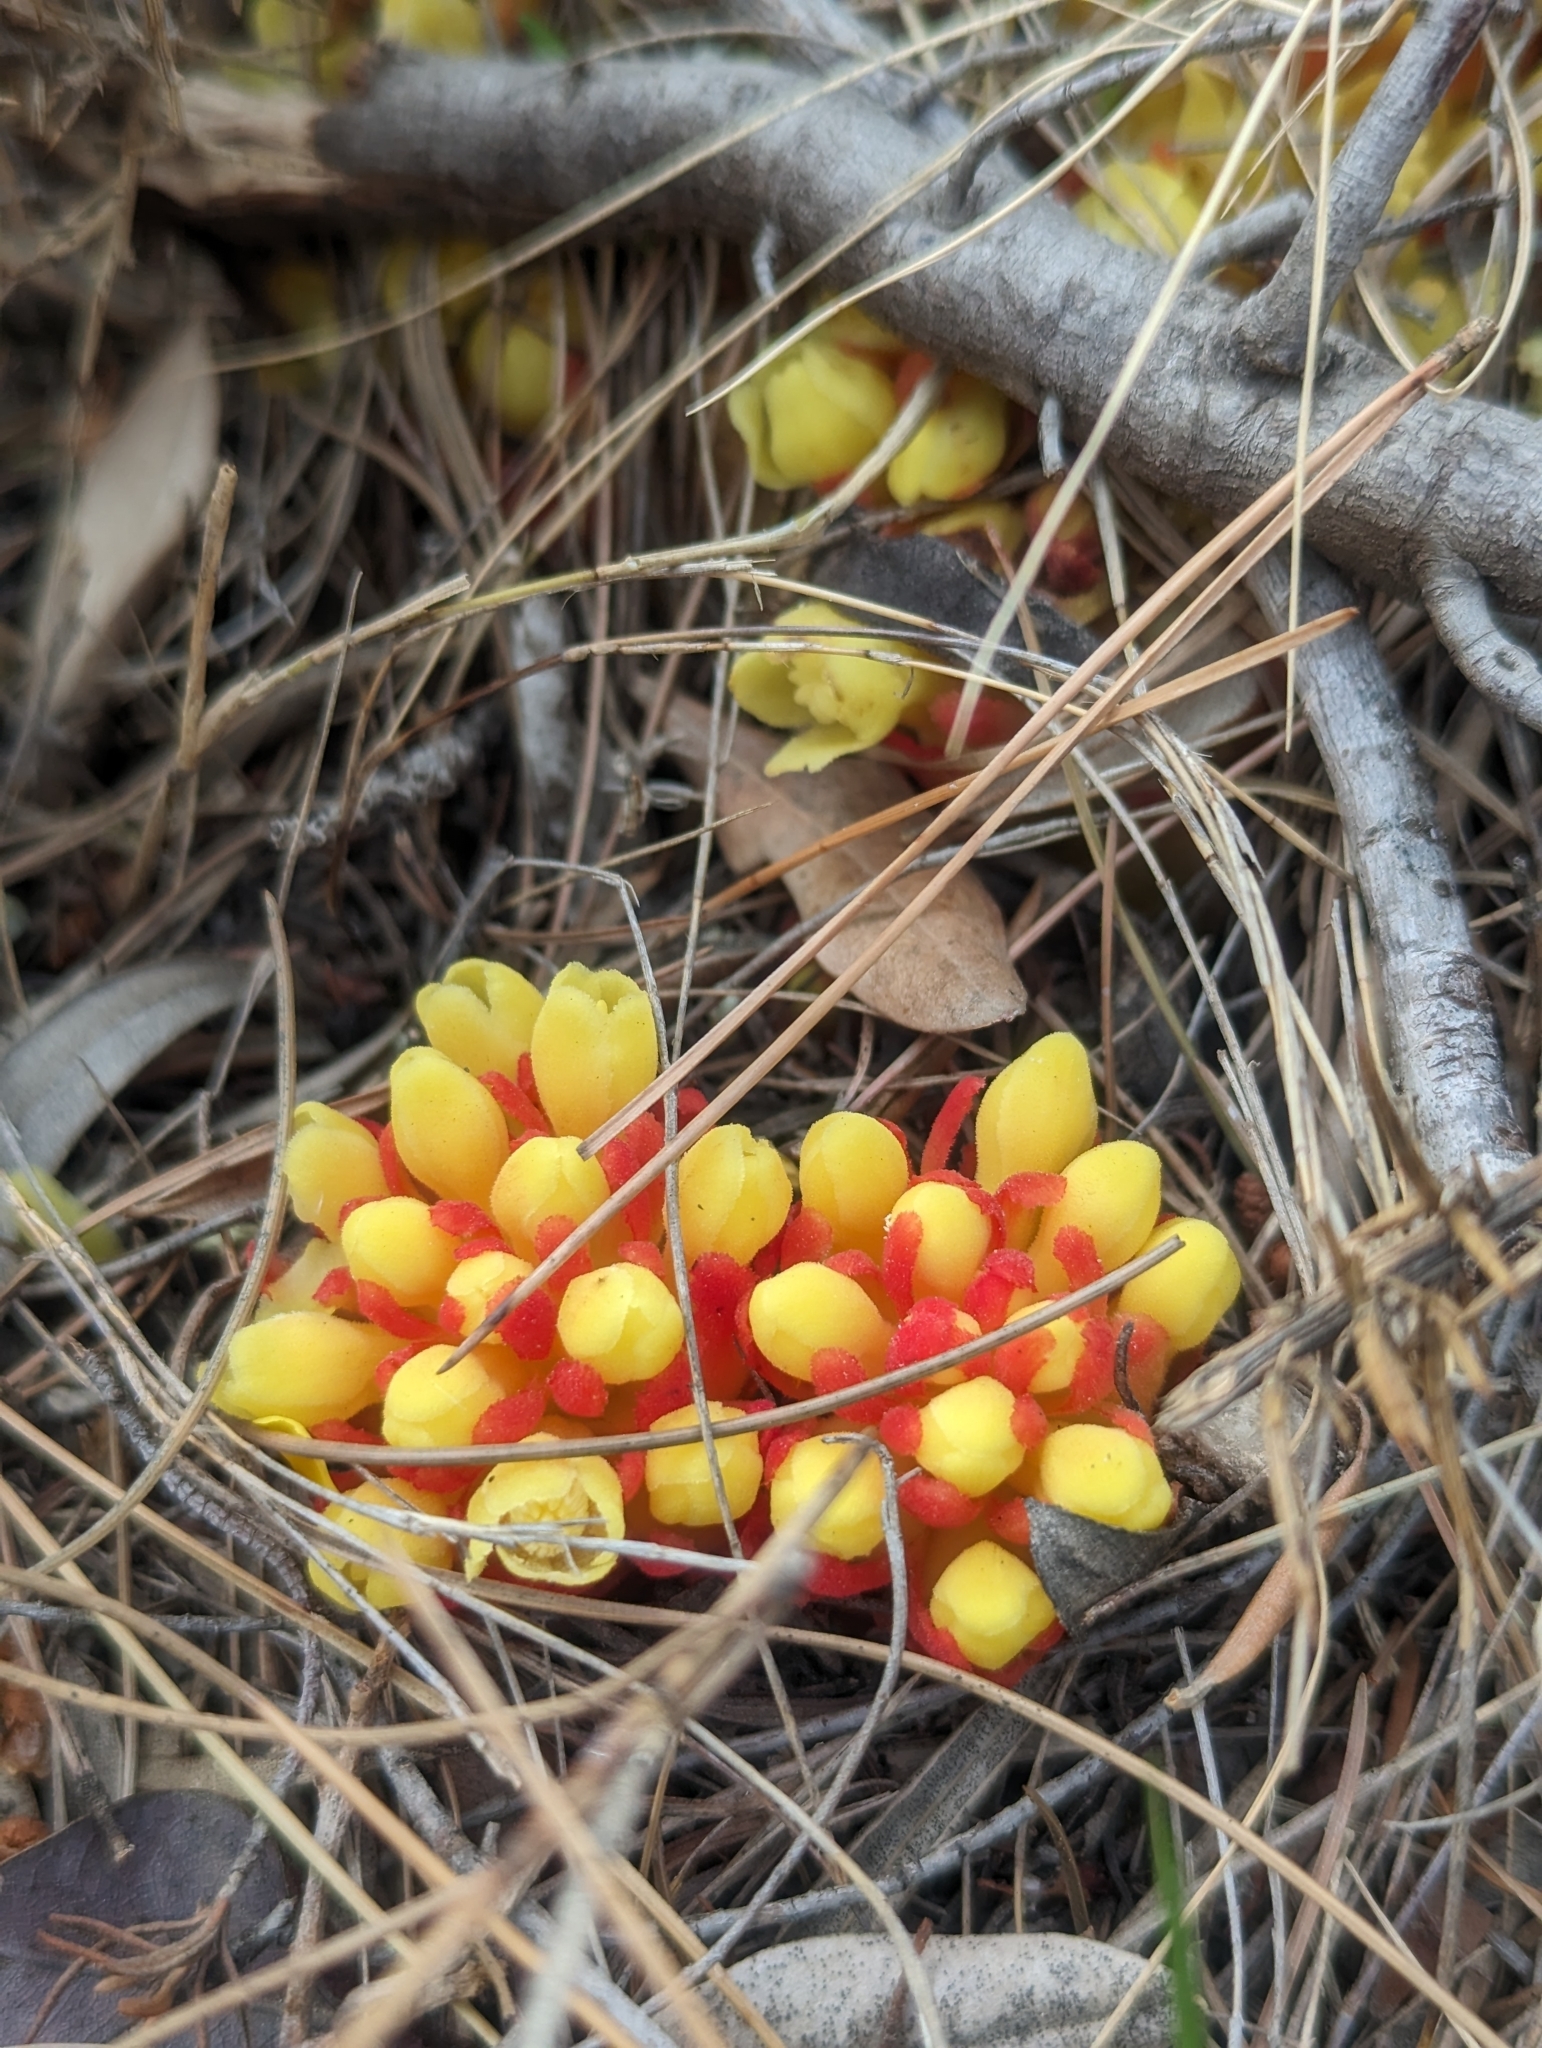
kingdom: Plantae
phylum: Tracheophyta
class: Magnoliopsida
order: Malvales
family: Cytinaceae
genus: Cytinus
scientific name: Cytinus hypocistis
